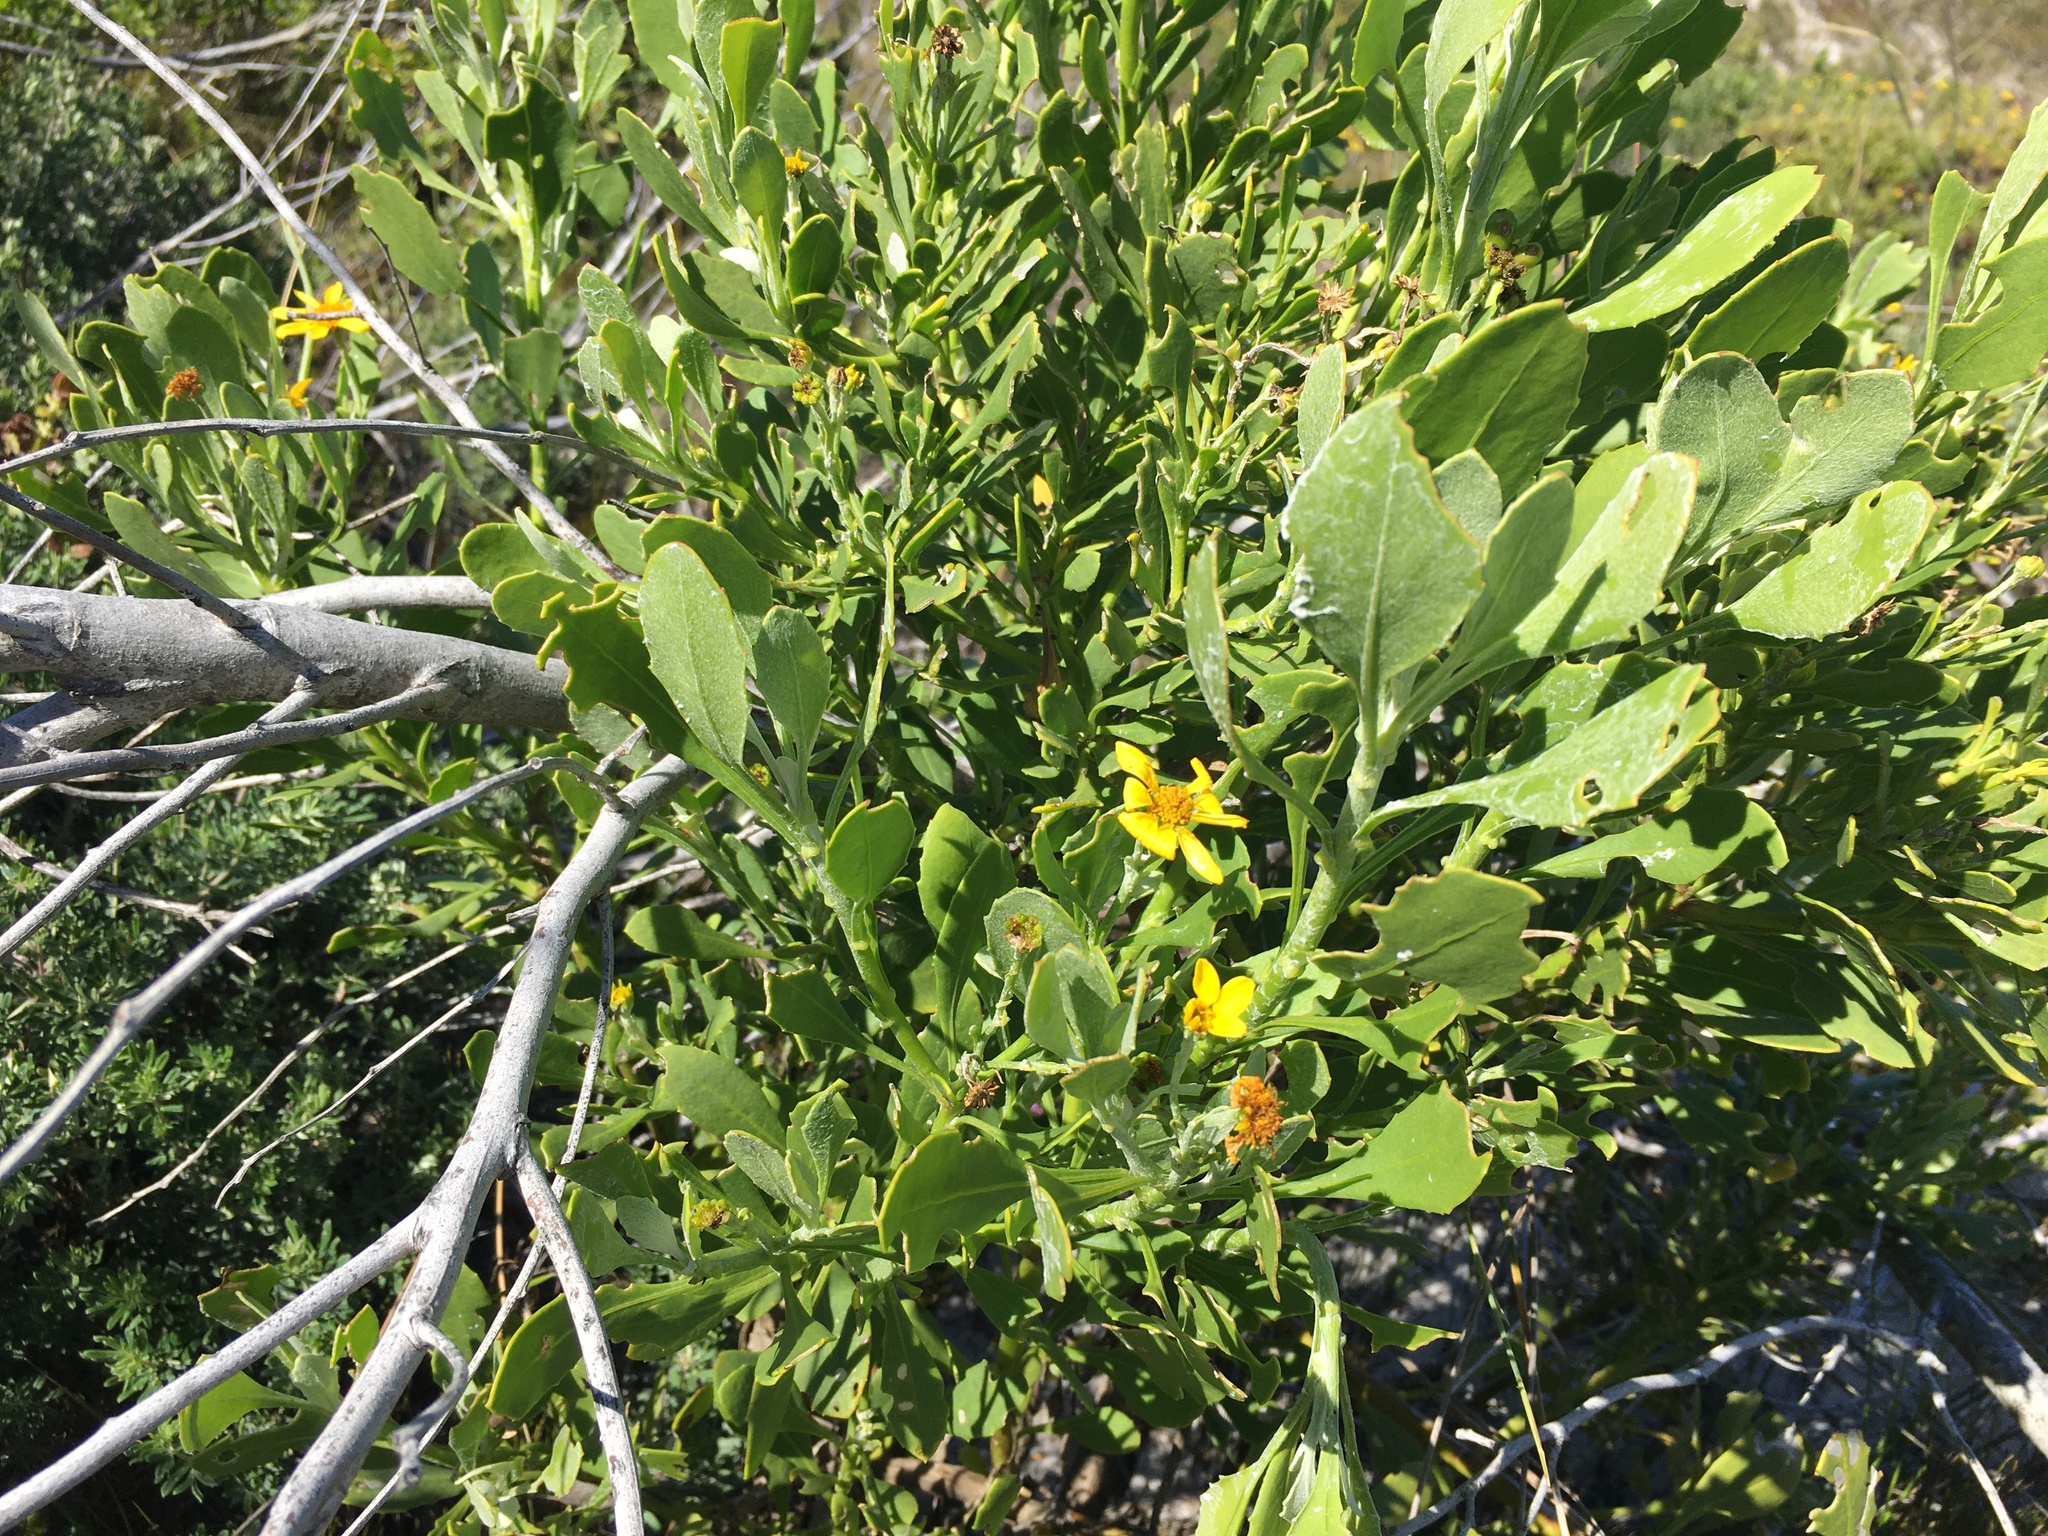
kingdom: Plantae
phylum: Tracheophyta
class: Magnoliopsida
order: Asterales
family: Asteraceae
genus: Osteospermum
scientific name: Osteospermum moniliferum
